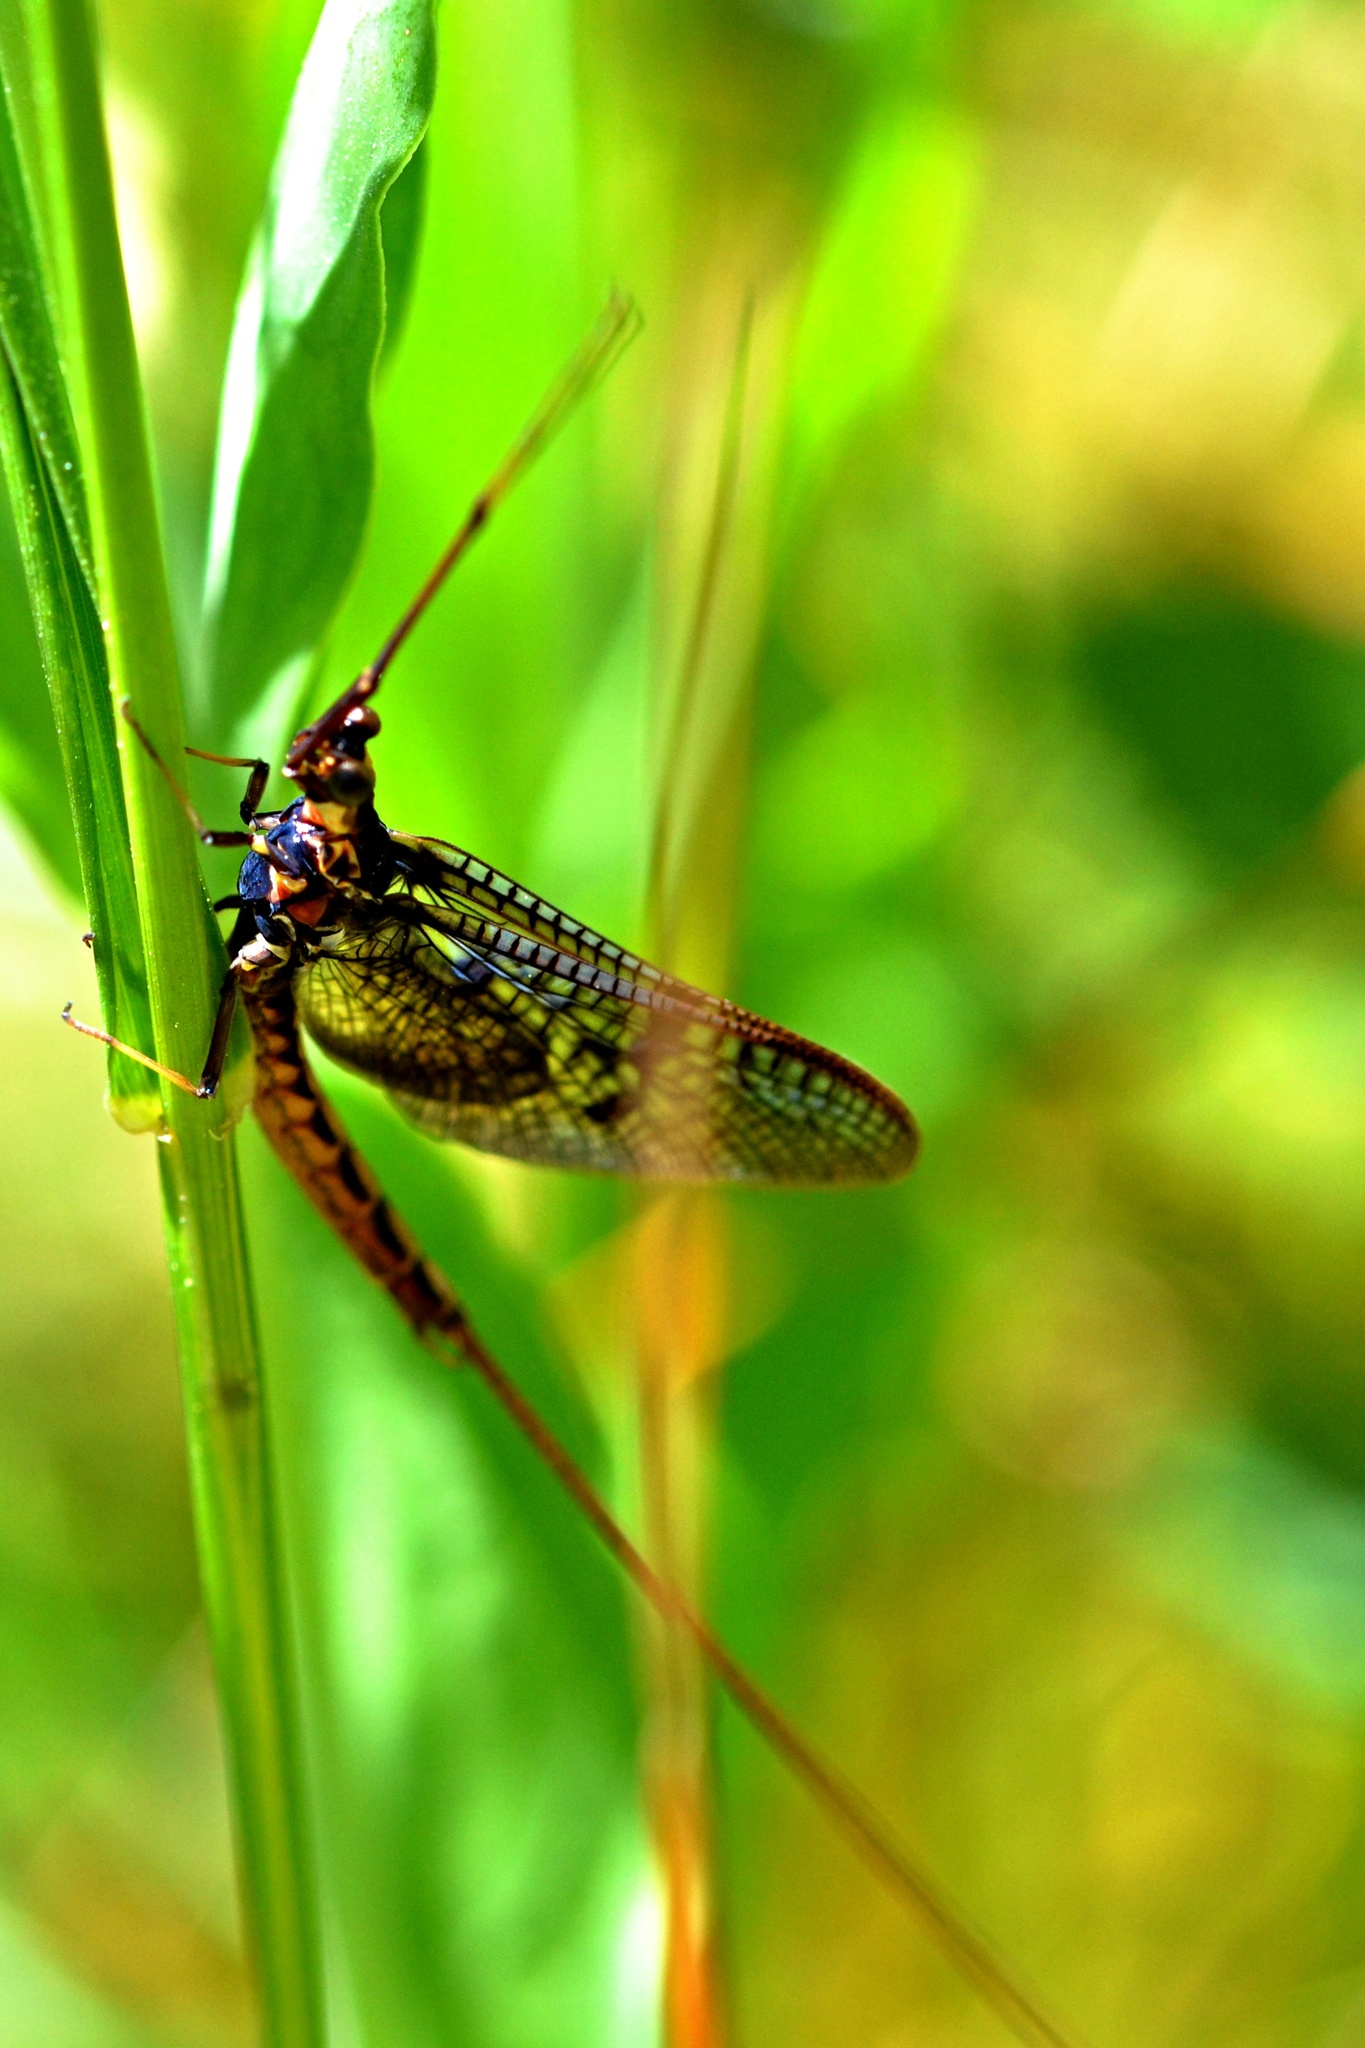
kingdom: Animalia
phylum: Arthropoda
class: Insecta
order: Ephemeroptera
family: Ephemeridae
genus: Ephemera
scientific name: Ephemera vulgata
